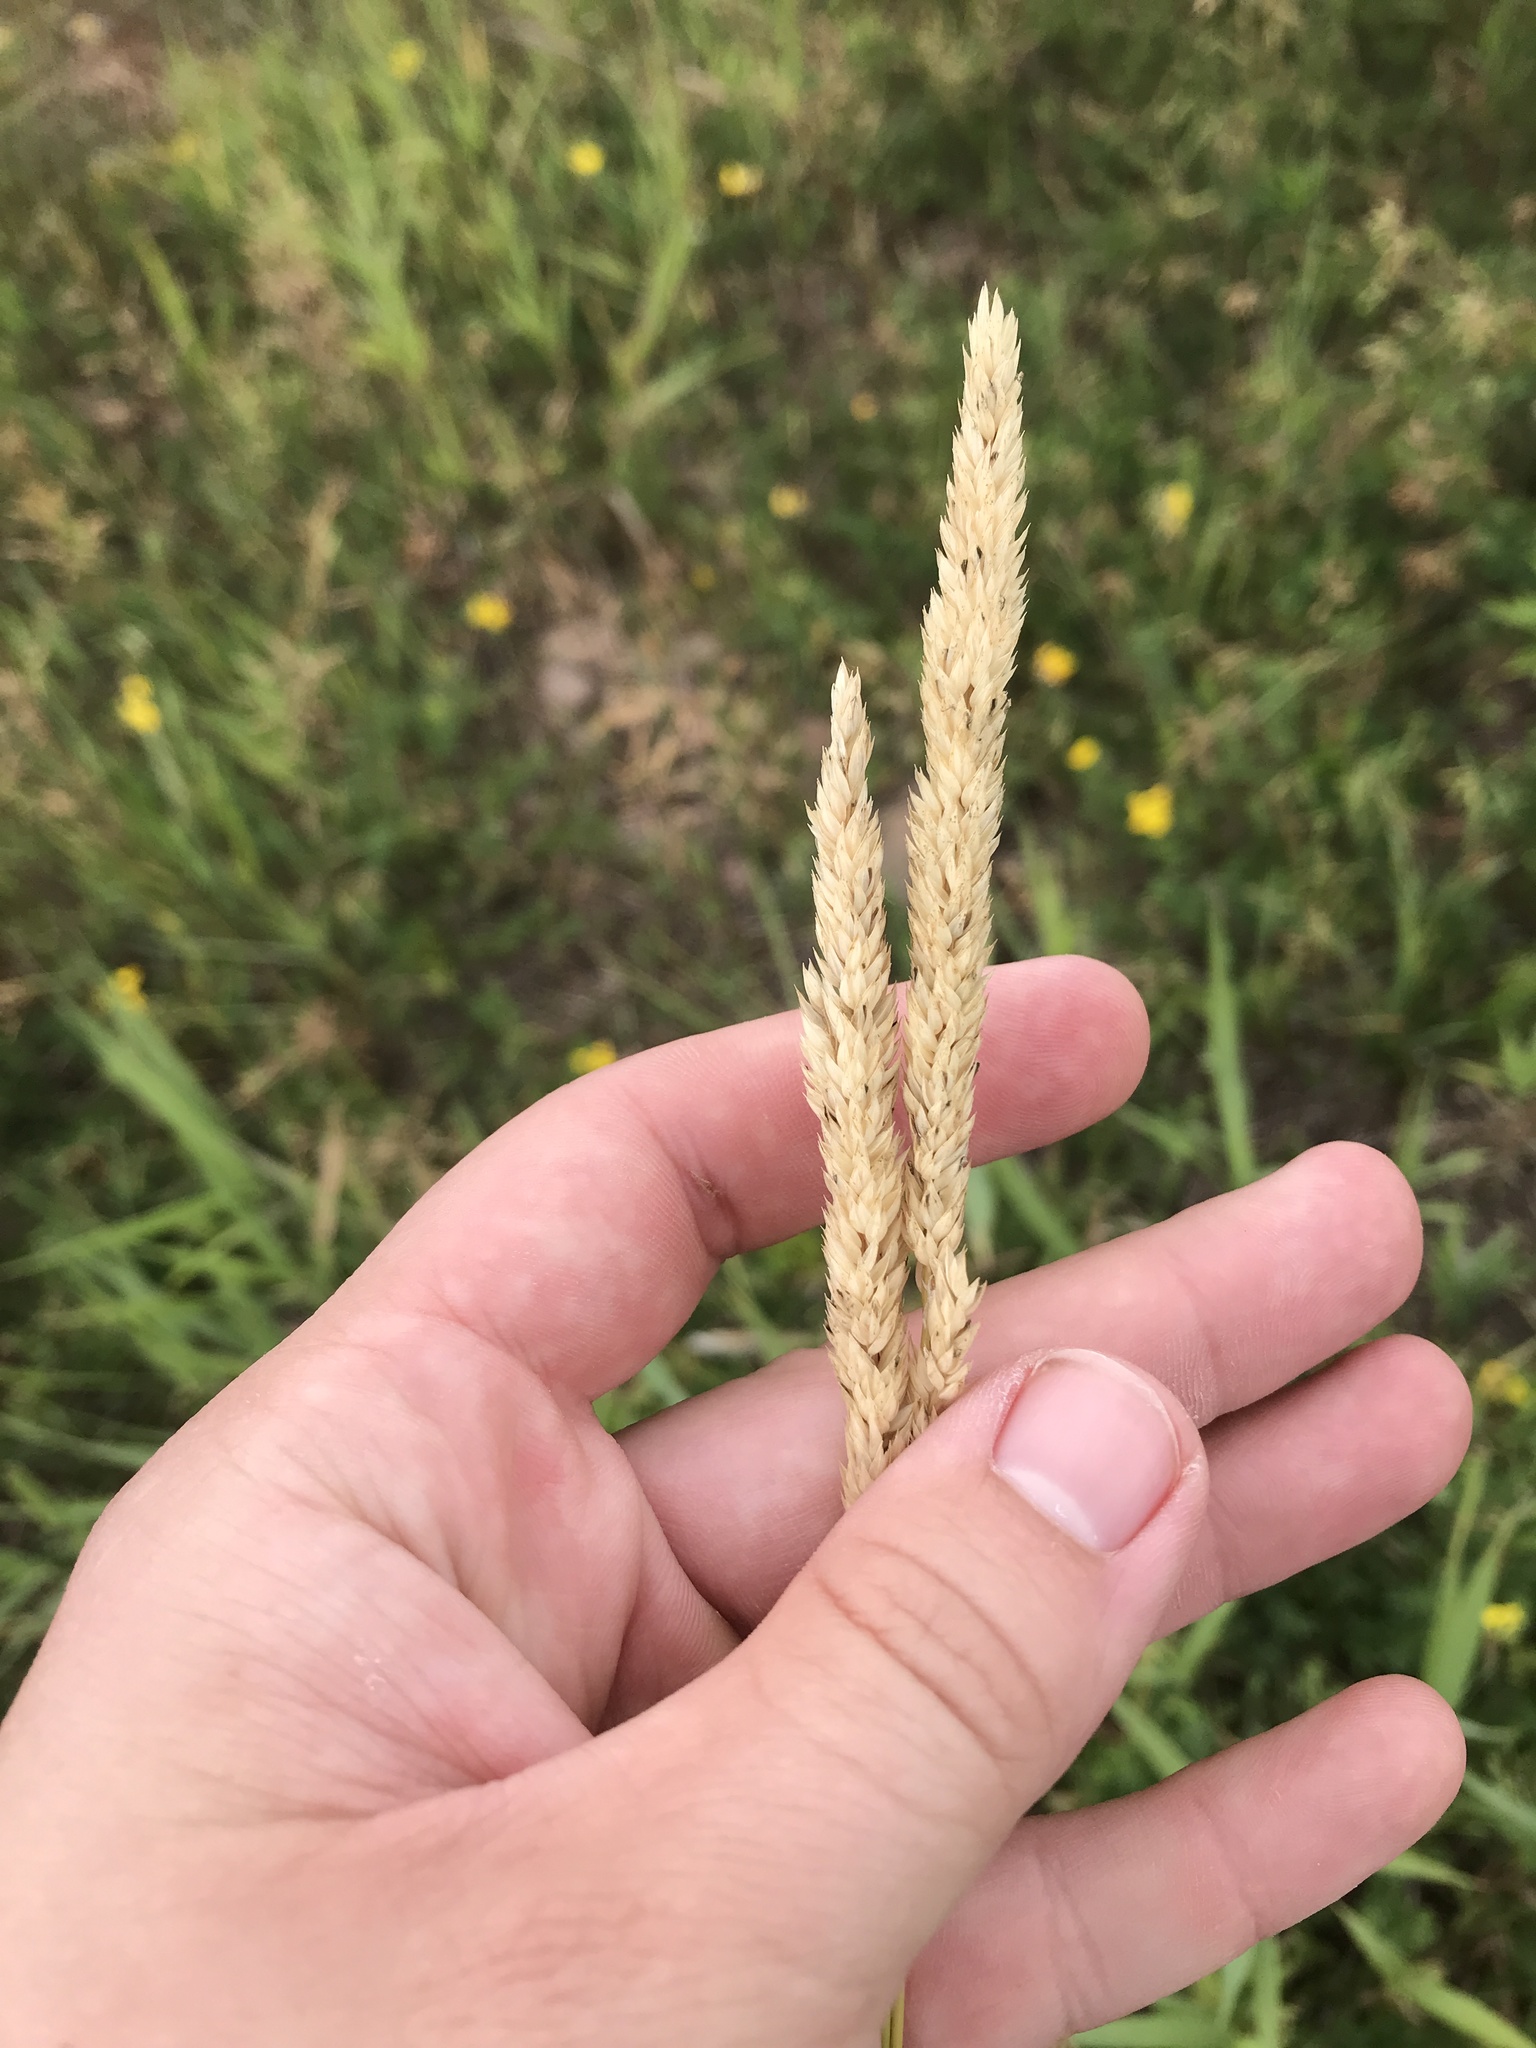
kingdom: Plantae
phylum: Tracheophyta
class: Liliopsida
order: Poales
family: Poaceae
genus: Phalaris
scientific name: Phalaris arundinacea
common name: Reed canary-grass
